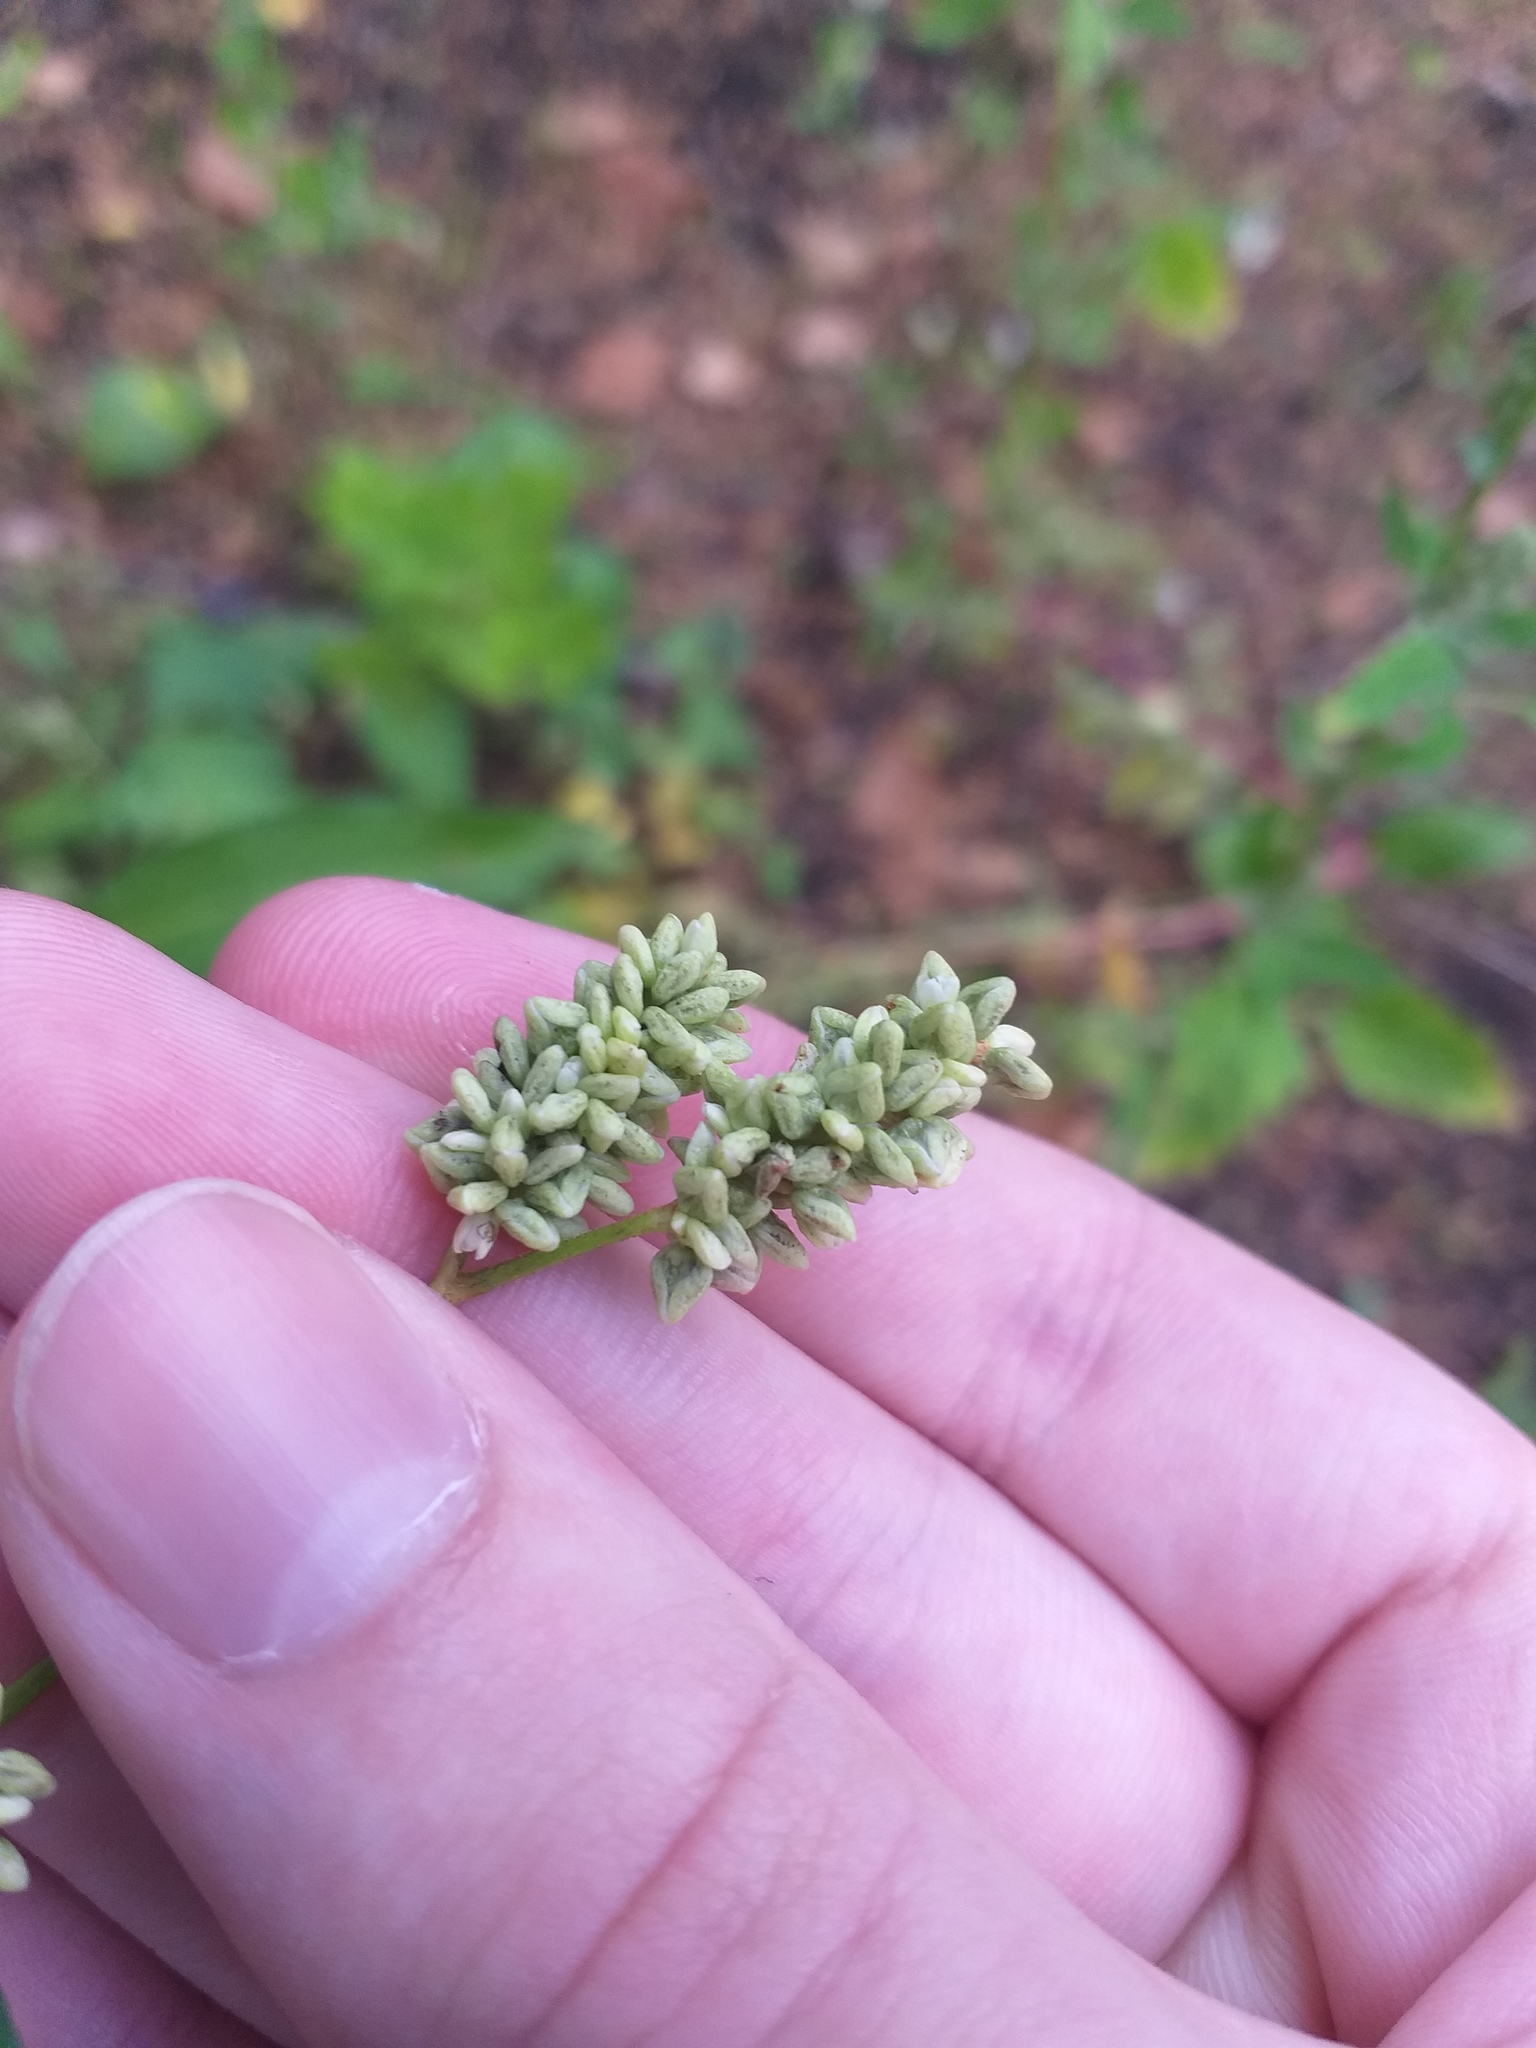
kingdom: Plantae
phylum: Tracheophyta
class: Magnoliopsida
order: Caryophyllales
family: Polygonaceae
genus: Persicaria
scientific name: Persicaria lapathifolia
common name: Curlytop knotweed
